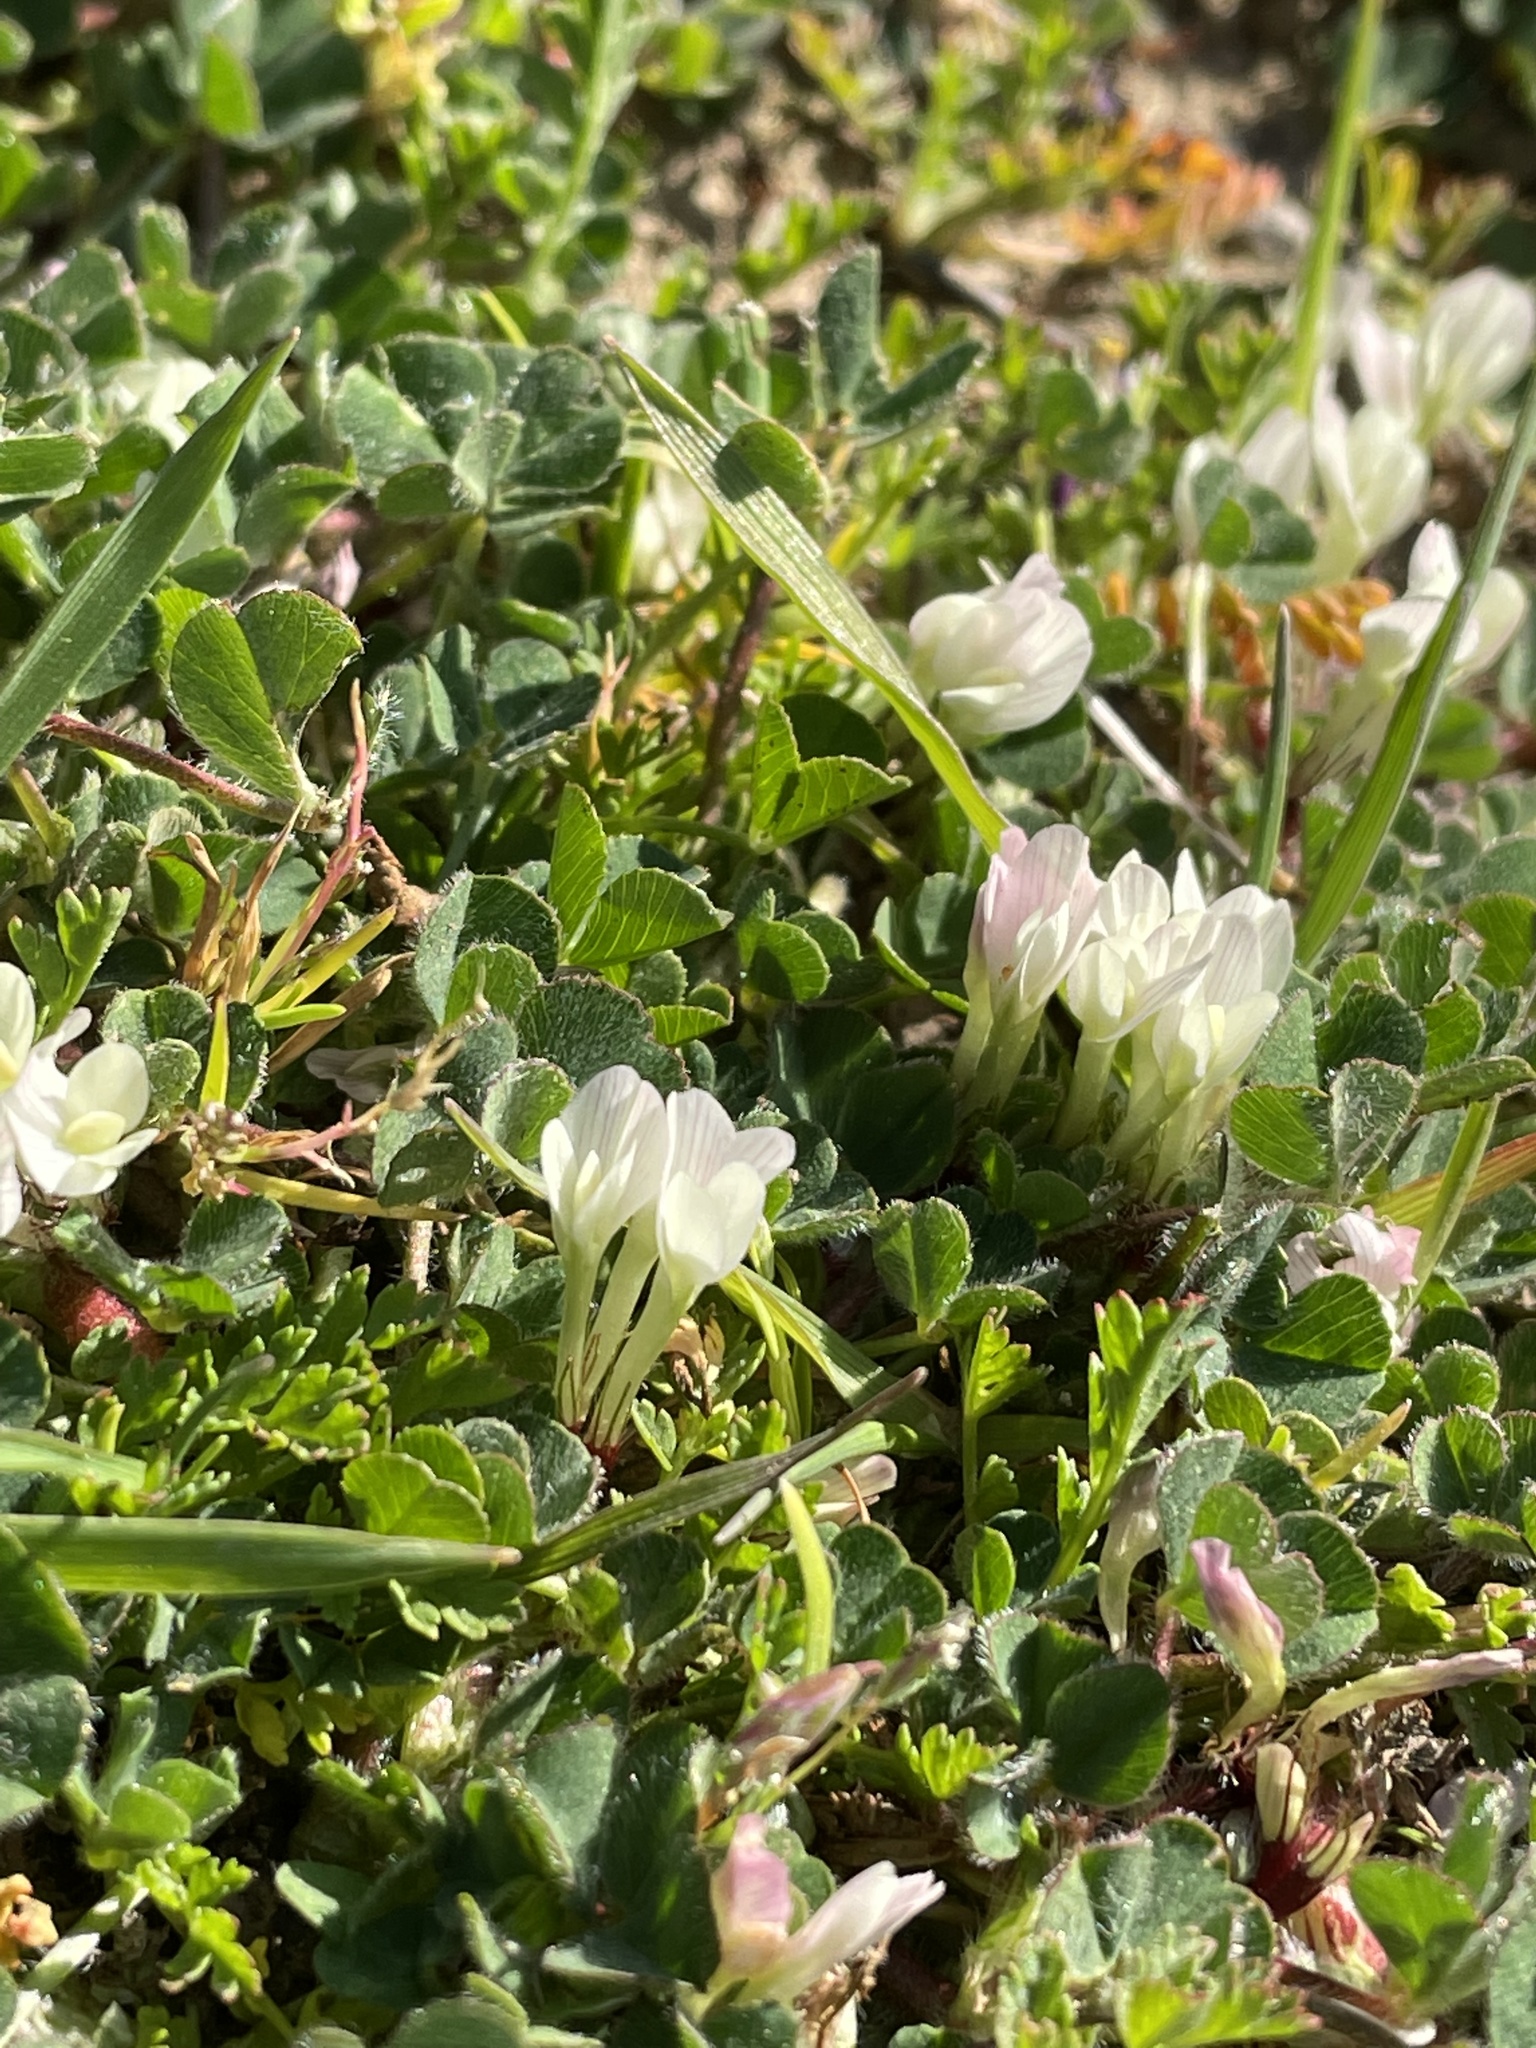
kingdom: Plantae
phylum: Tracheophyta
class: Magnoliopsida
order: Fabales
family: Fabaceae
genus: Trifolium
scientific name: Trifolium subterraneum
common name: Subterranean clover
